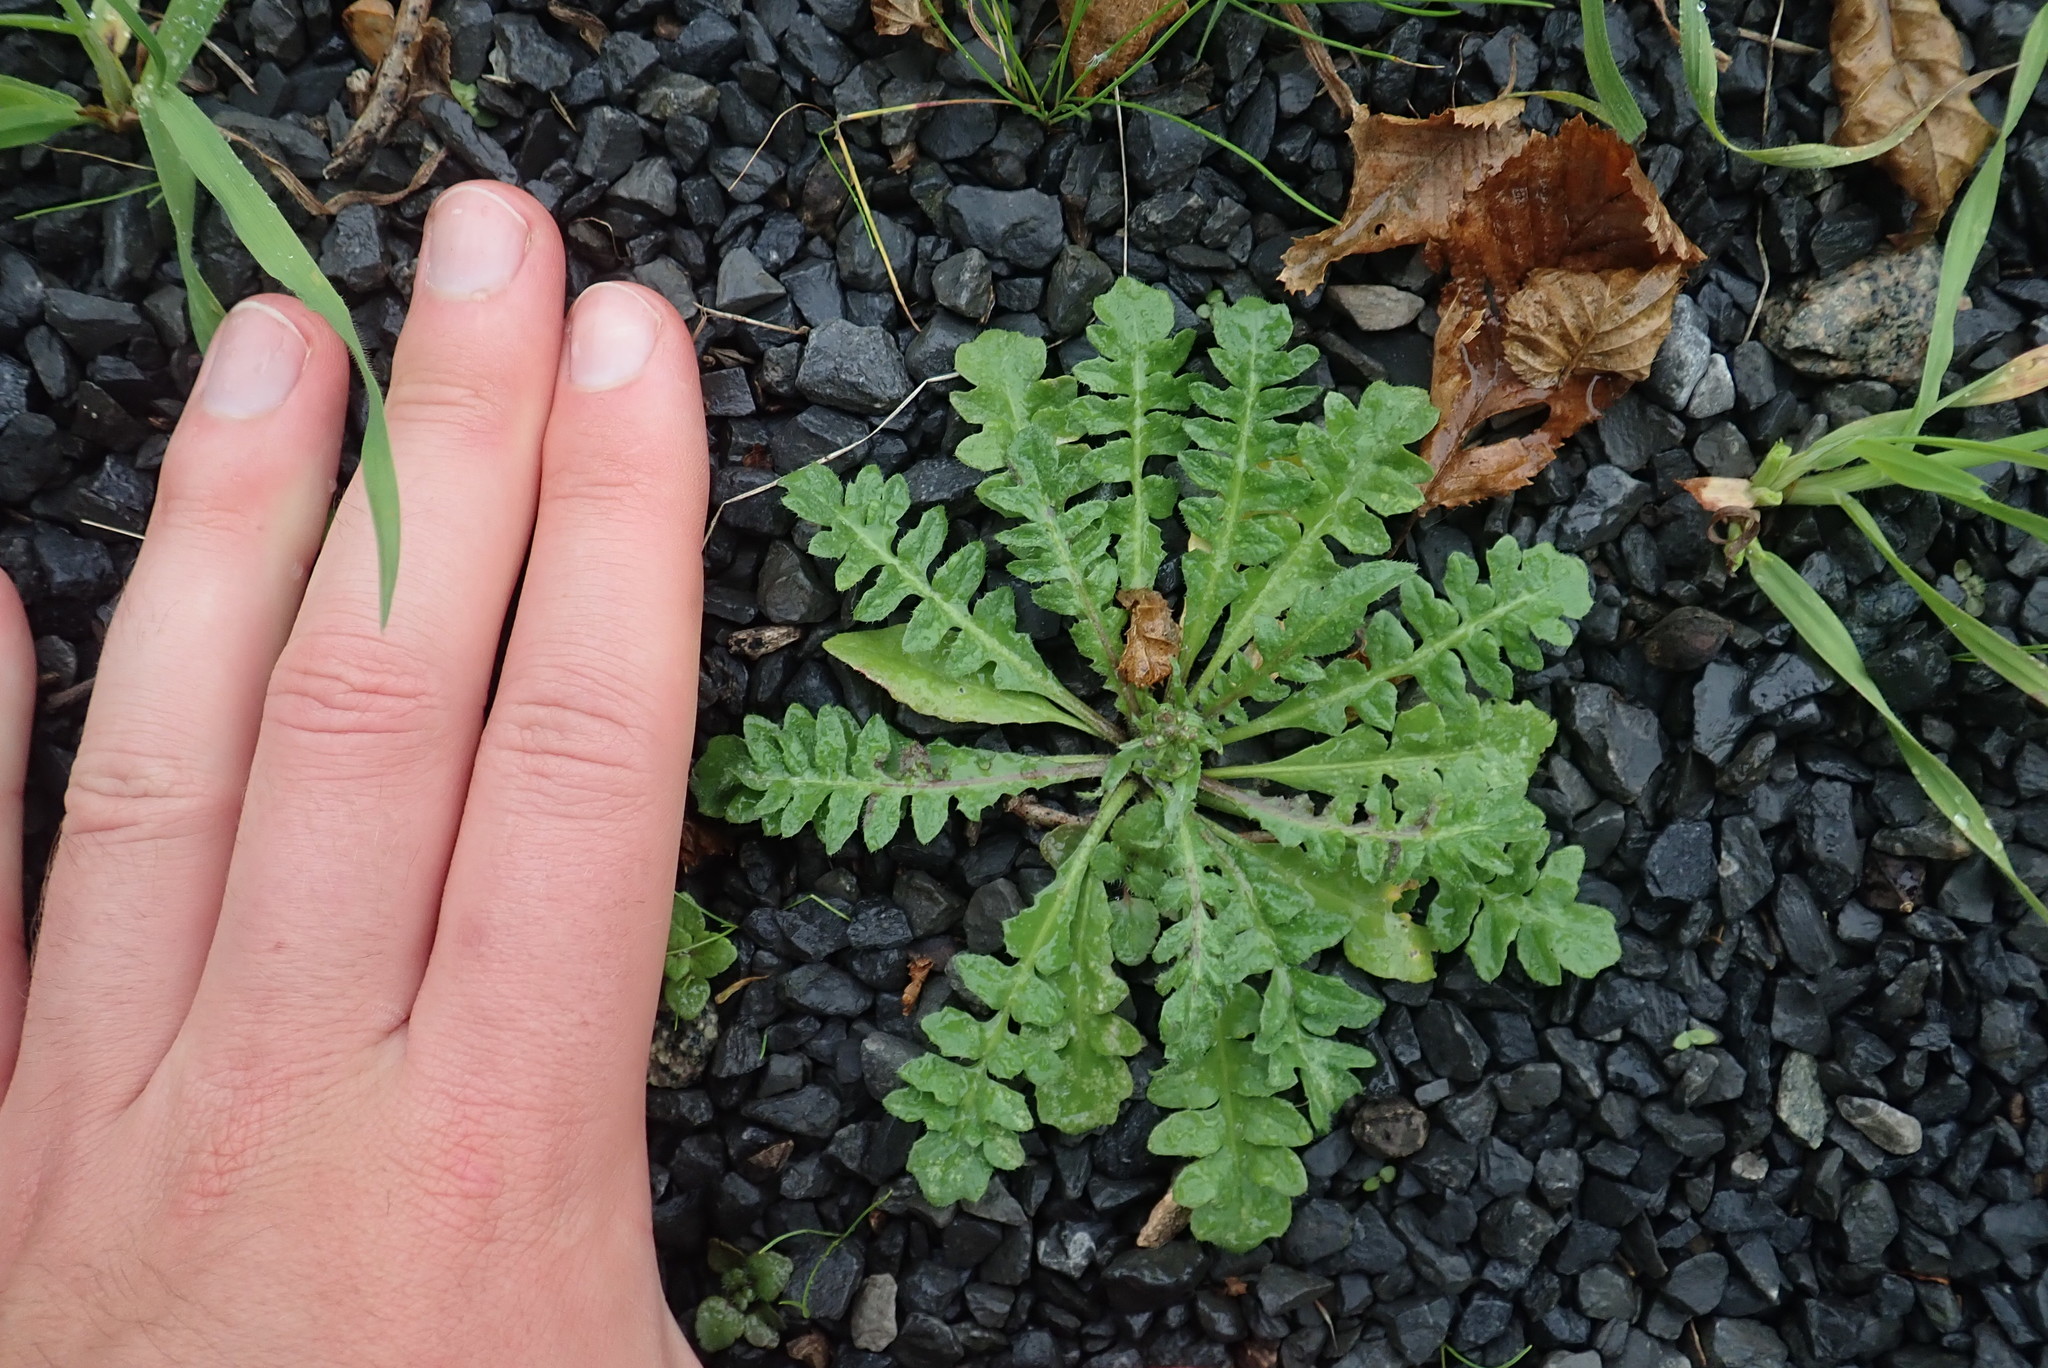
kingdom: Plantae
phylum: Tracheophyta
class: Magnoliopsida
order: Brassicales
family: Brassicaceae
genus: Capsella
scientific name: Capsella bursa-pastoris
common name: Shepherd's purse
